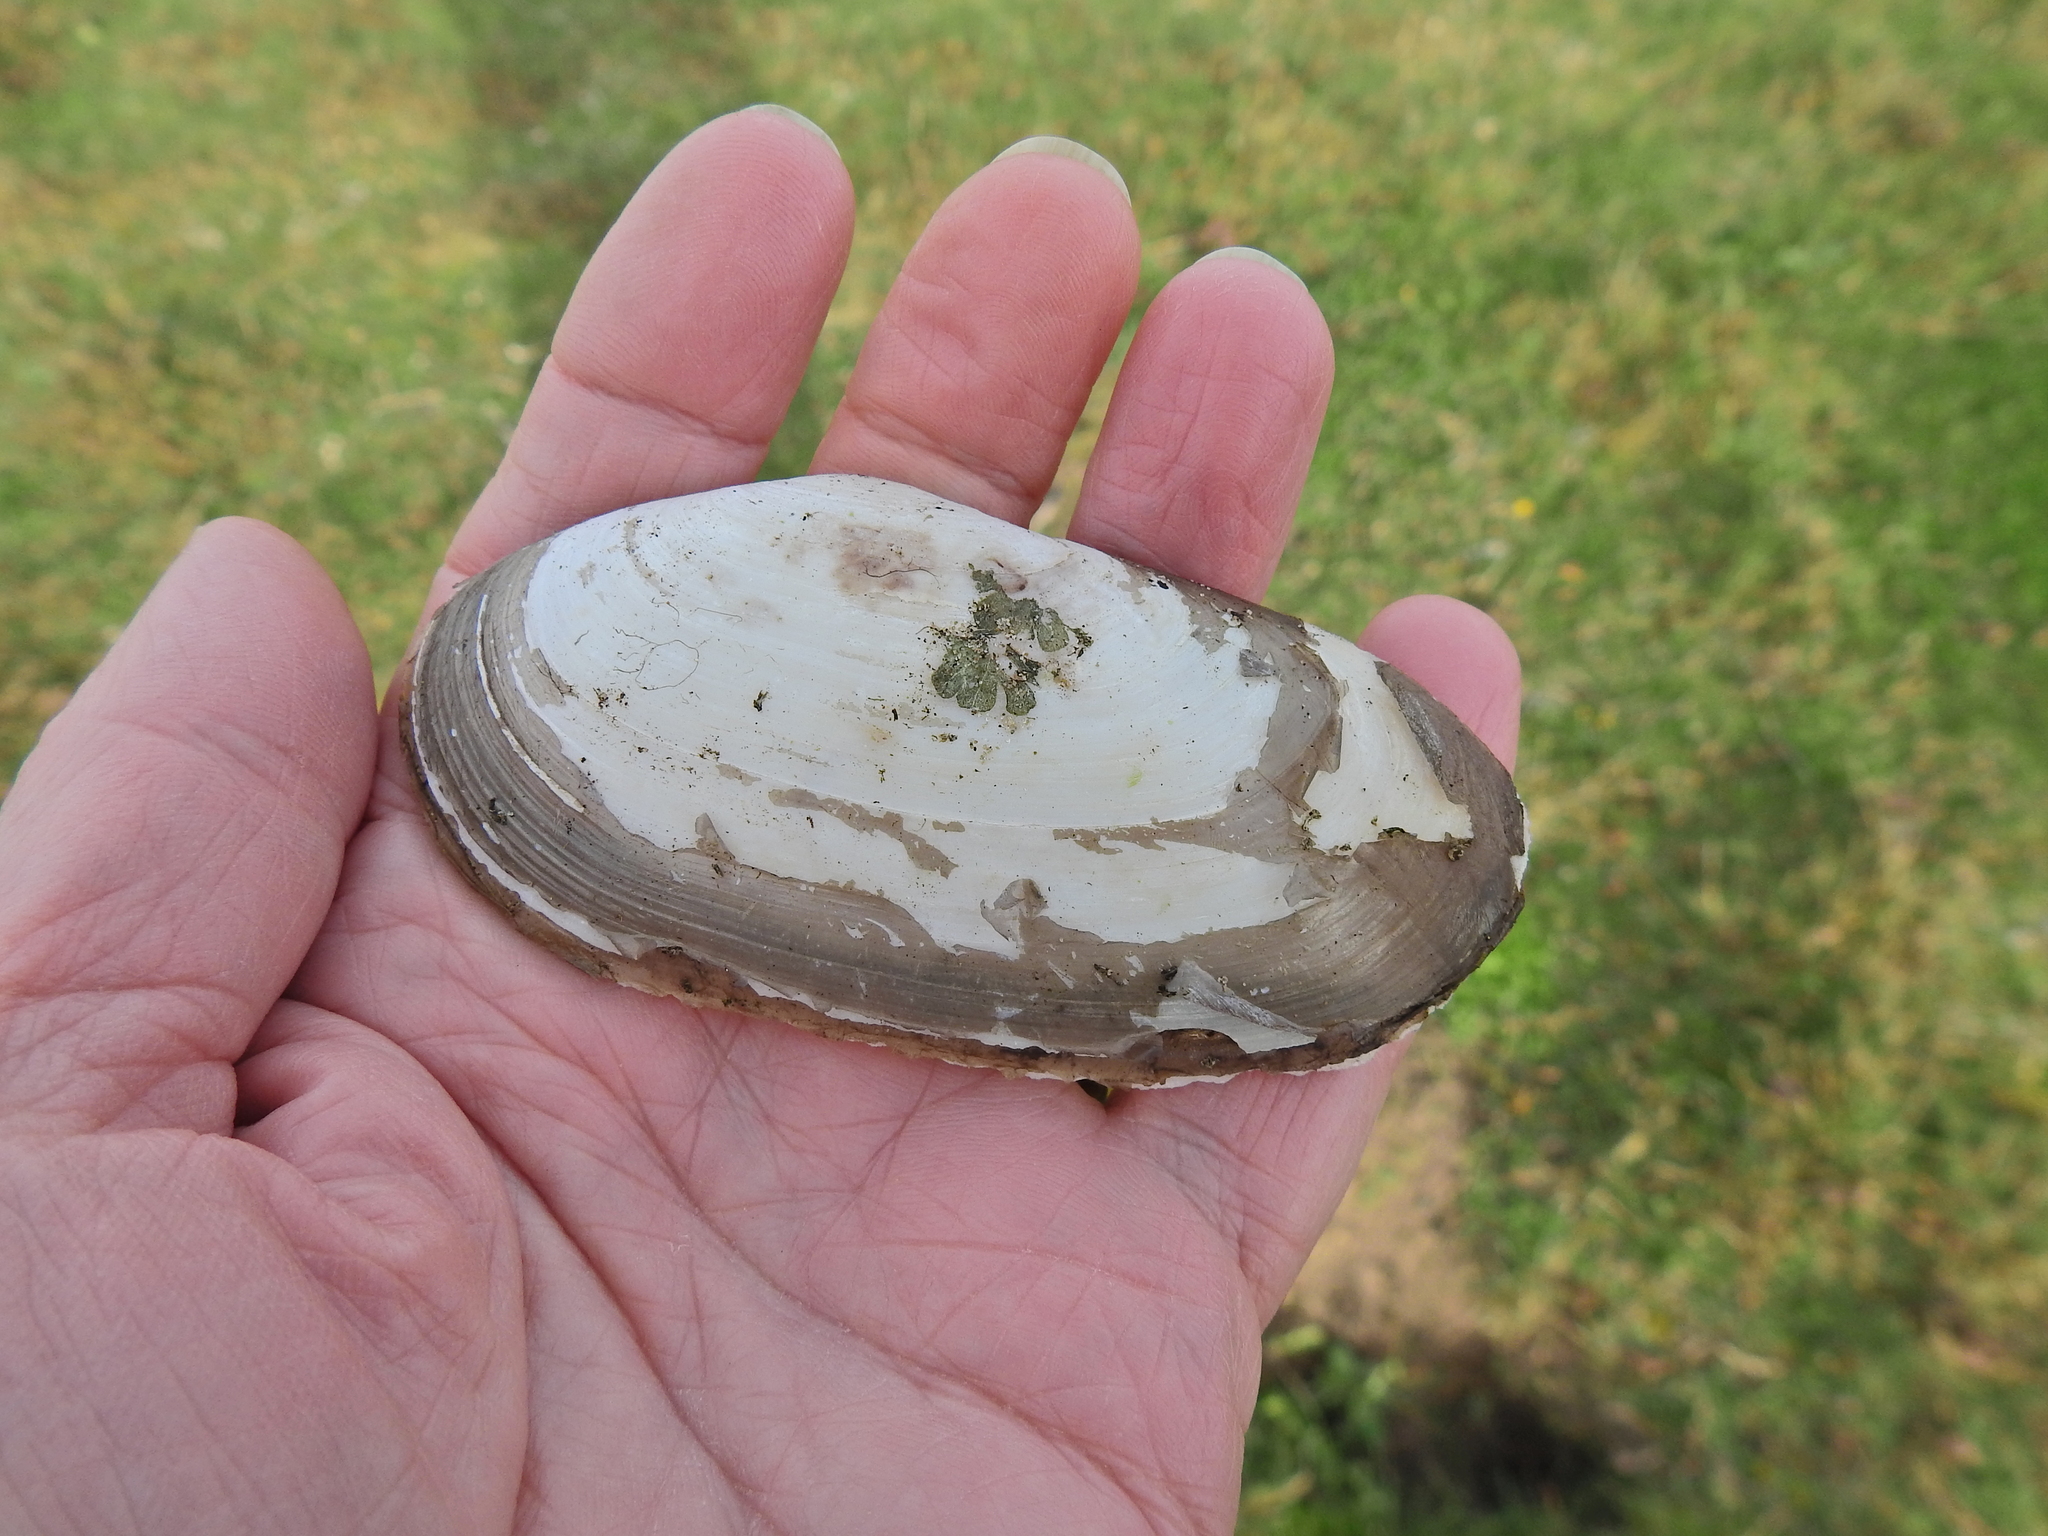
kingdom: Animalia
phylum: Mollusca
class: Bivalvia
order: Venerida
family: Mactridae
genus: Lutraria
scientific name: Lutraria lutraria
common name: Common otter shell
